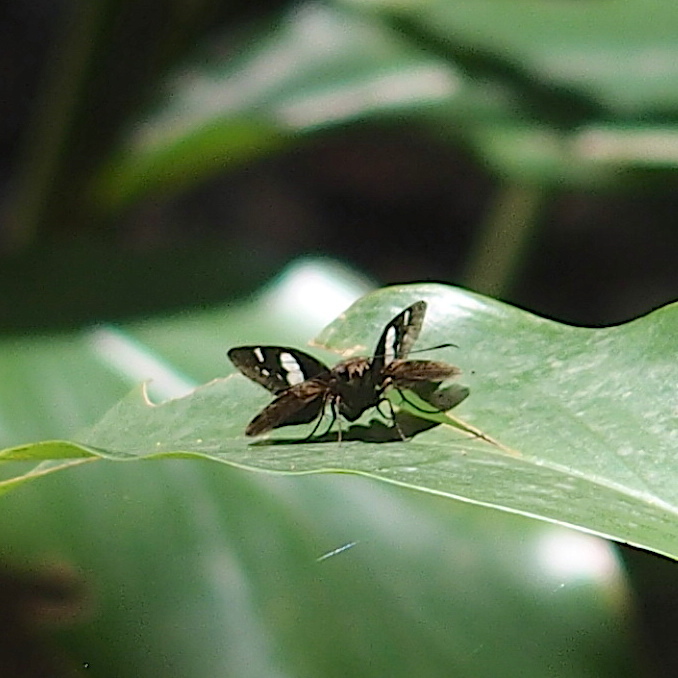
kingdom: Animalia
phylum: Arthropoda
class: Insecta
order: Lepidoptera
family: Hesperiidae
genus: Notocrypta
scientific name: Notocrypta curvifascia
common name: Restricted demon
